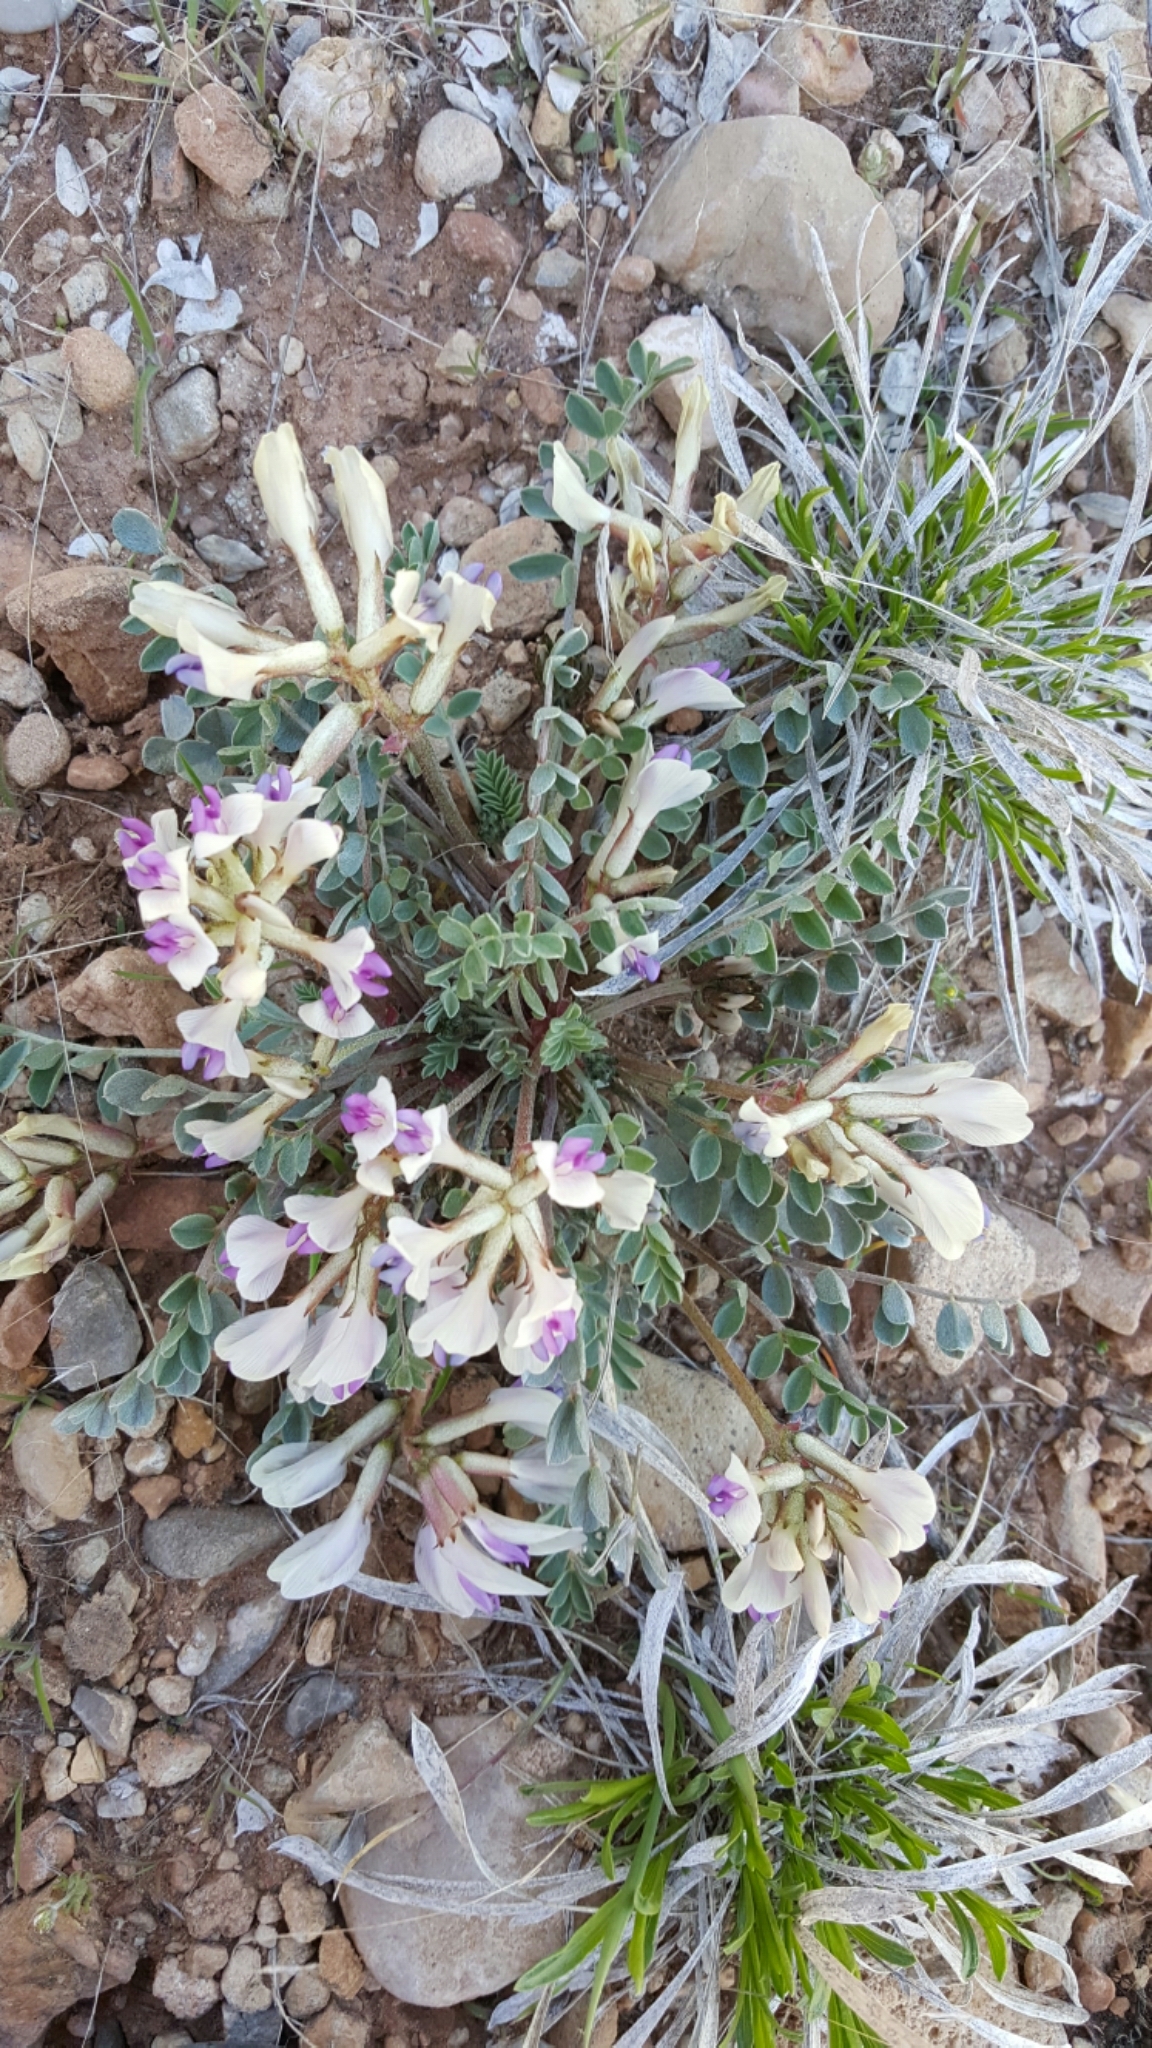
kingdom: Plantae
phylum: Tracheophyta
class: Magnoliopsida
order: Fabales
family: Fabaceae
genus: Astragalus
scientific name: Astragalus chamaeleuce
